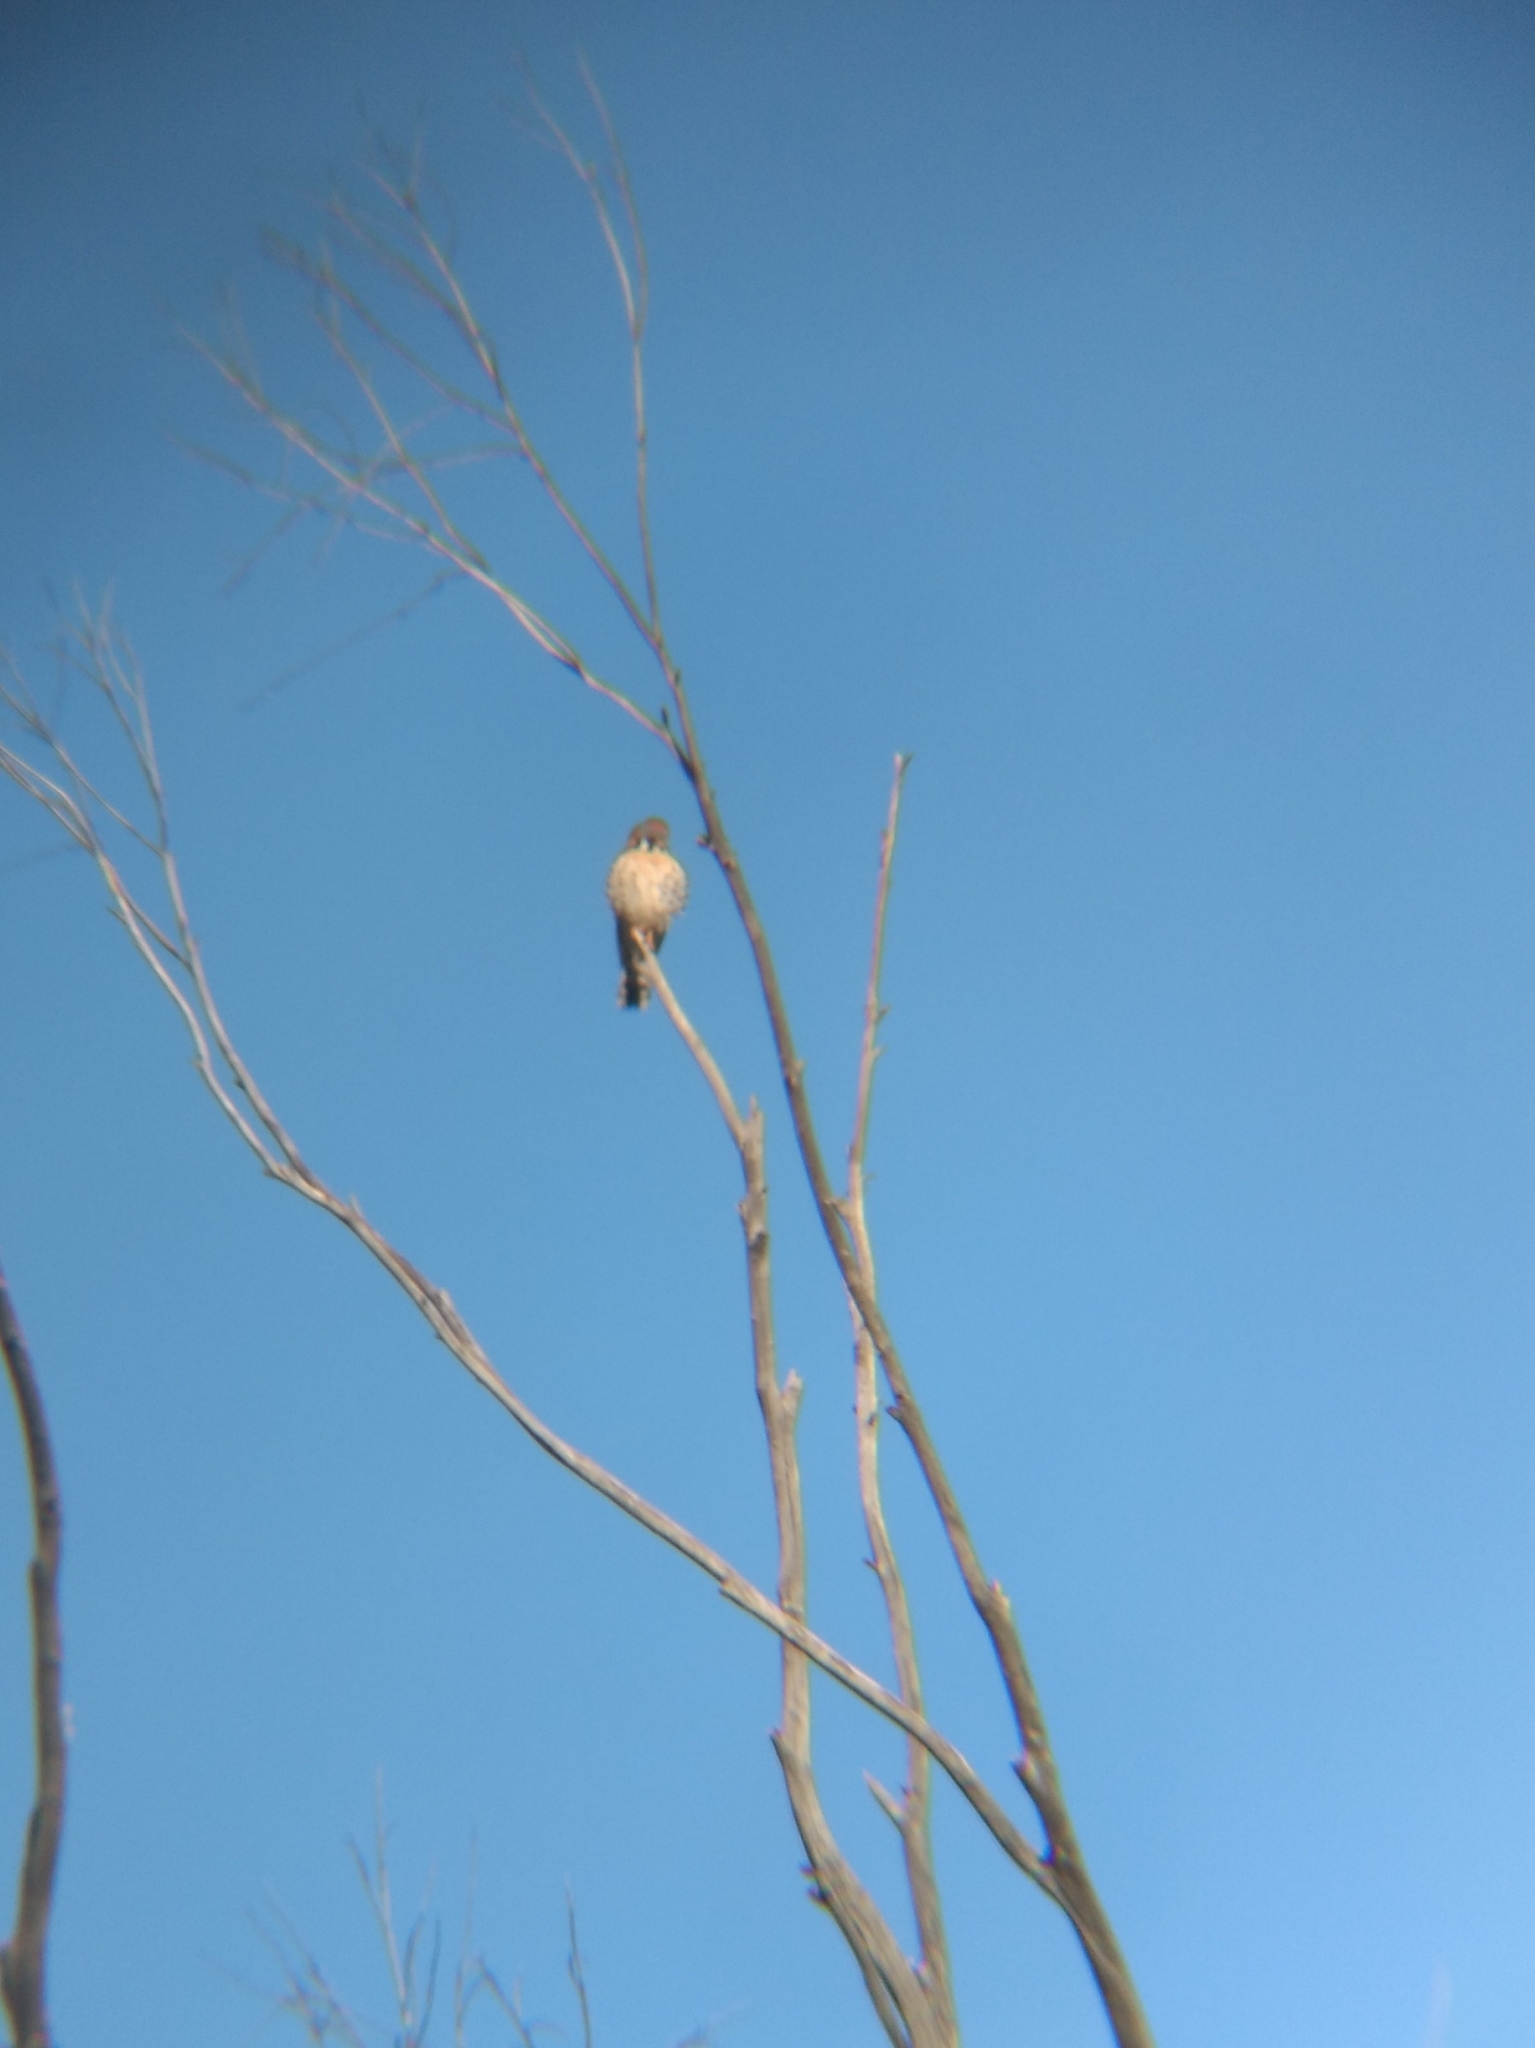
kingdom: Animalia
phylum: Chordata
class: Aves
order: Falconiformes
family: Falconidae
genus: Falco
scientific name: Falco sparverius
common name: American kestrel
